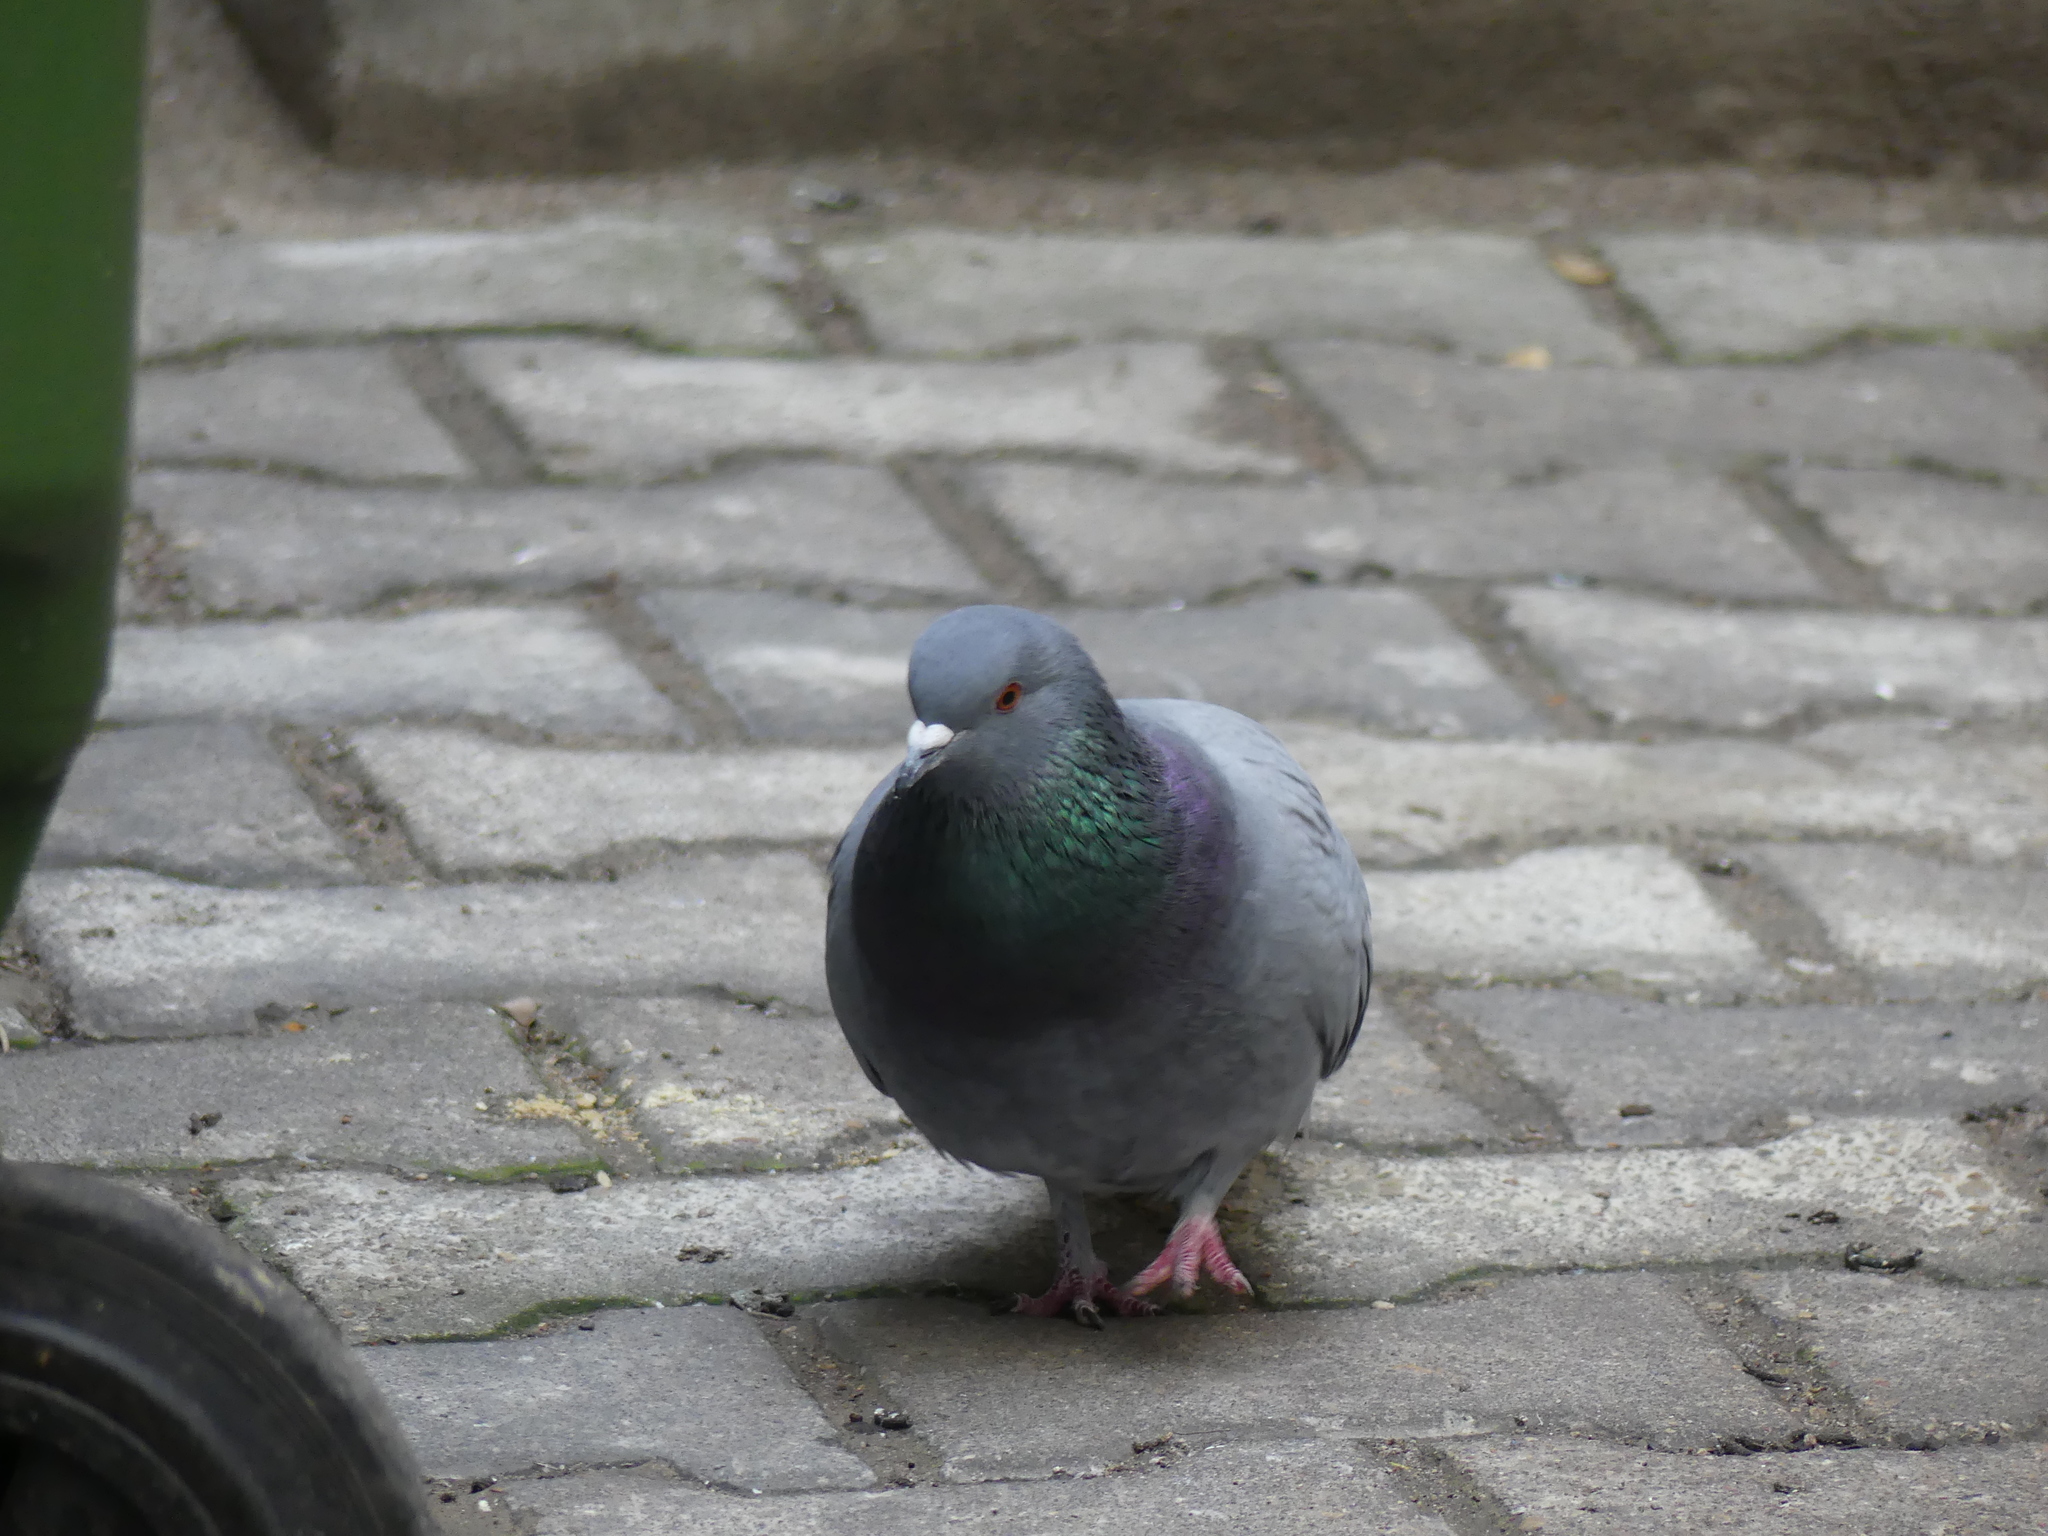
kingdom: Animalia
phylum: Chordata
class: Aves
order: Columbiformes
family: Columbidae
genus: Columba
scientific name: Columba livia
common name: Rock pigeon
